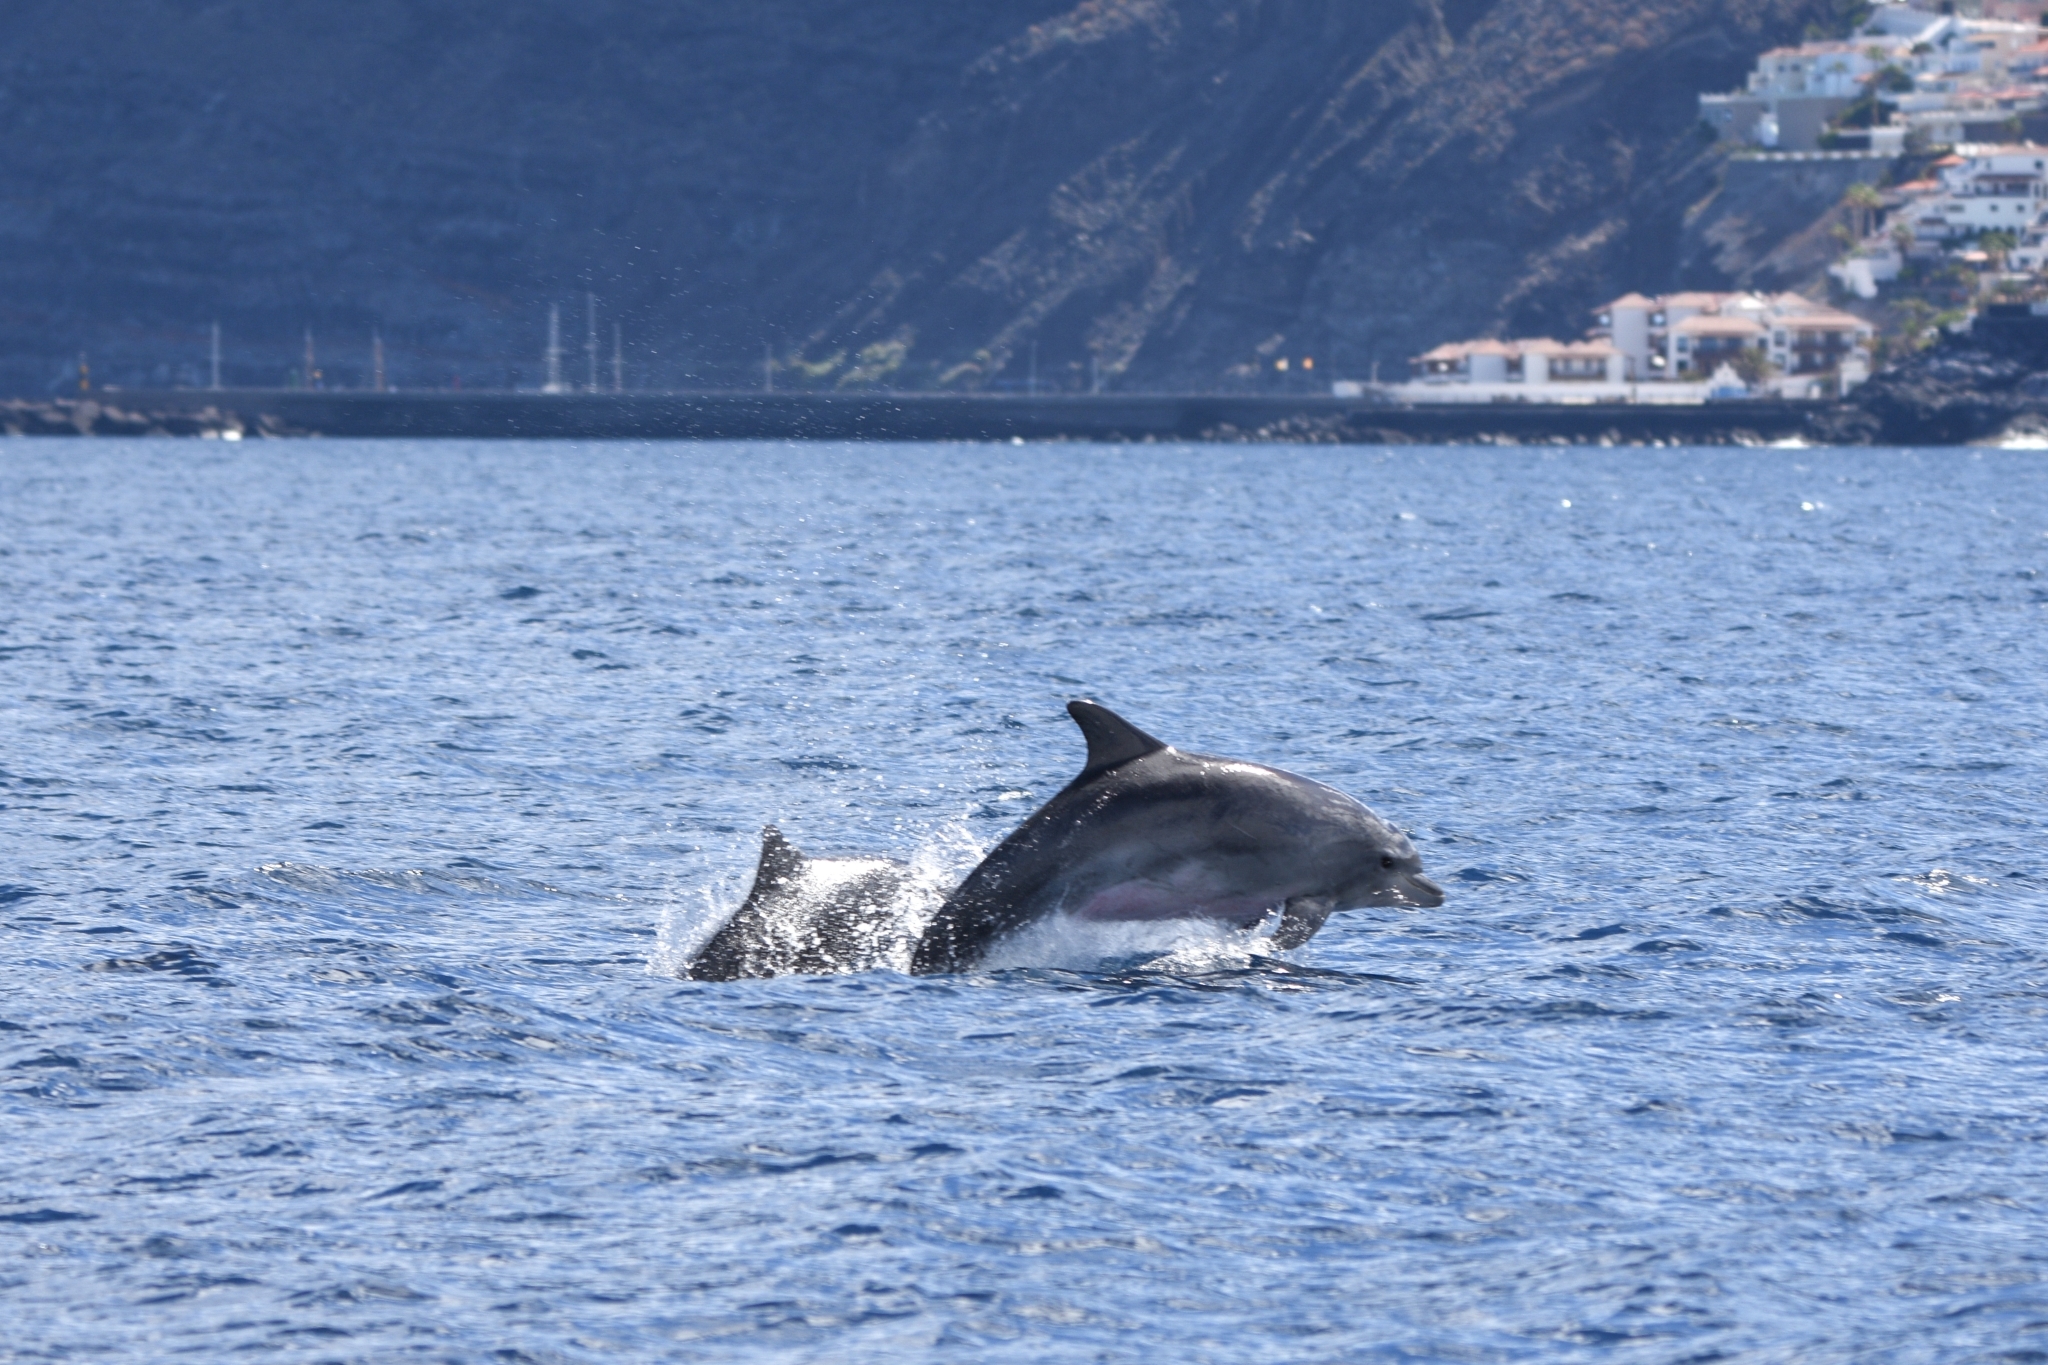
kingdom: Animalia
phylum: Chordata
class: Mammalia
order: Cetacea
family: Delphinidae
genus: Tursiops
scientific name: Tursiops truncatus
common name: Bottlenose dolphin
